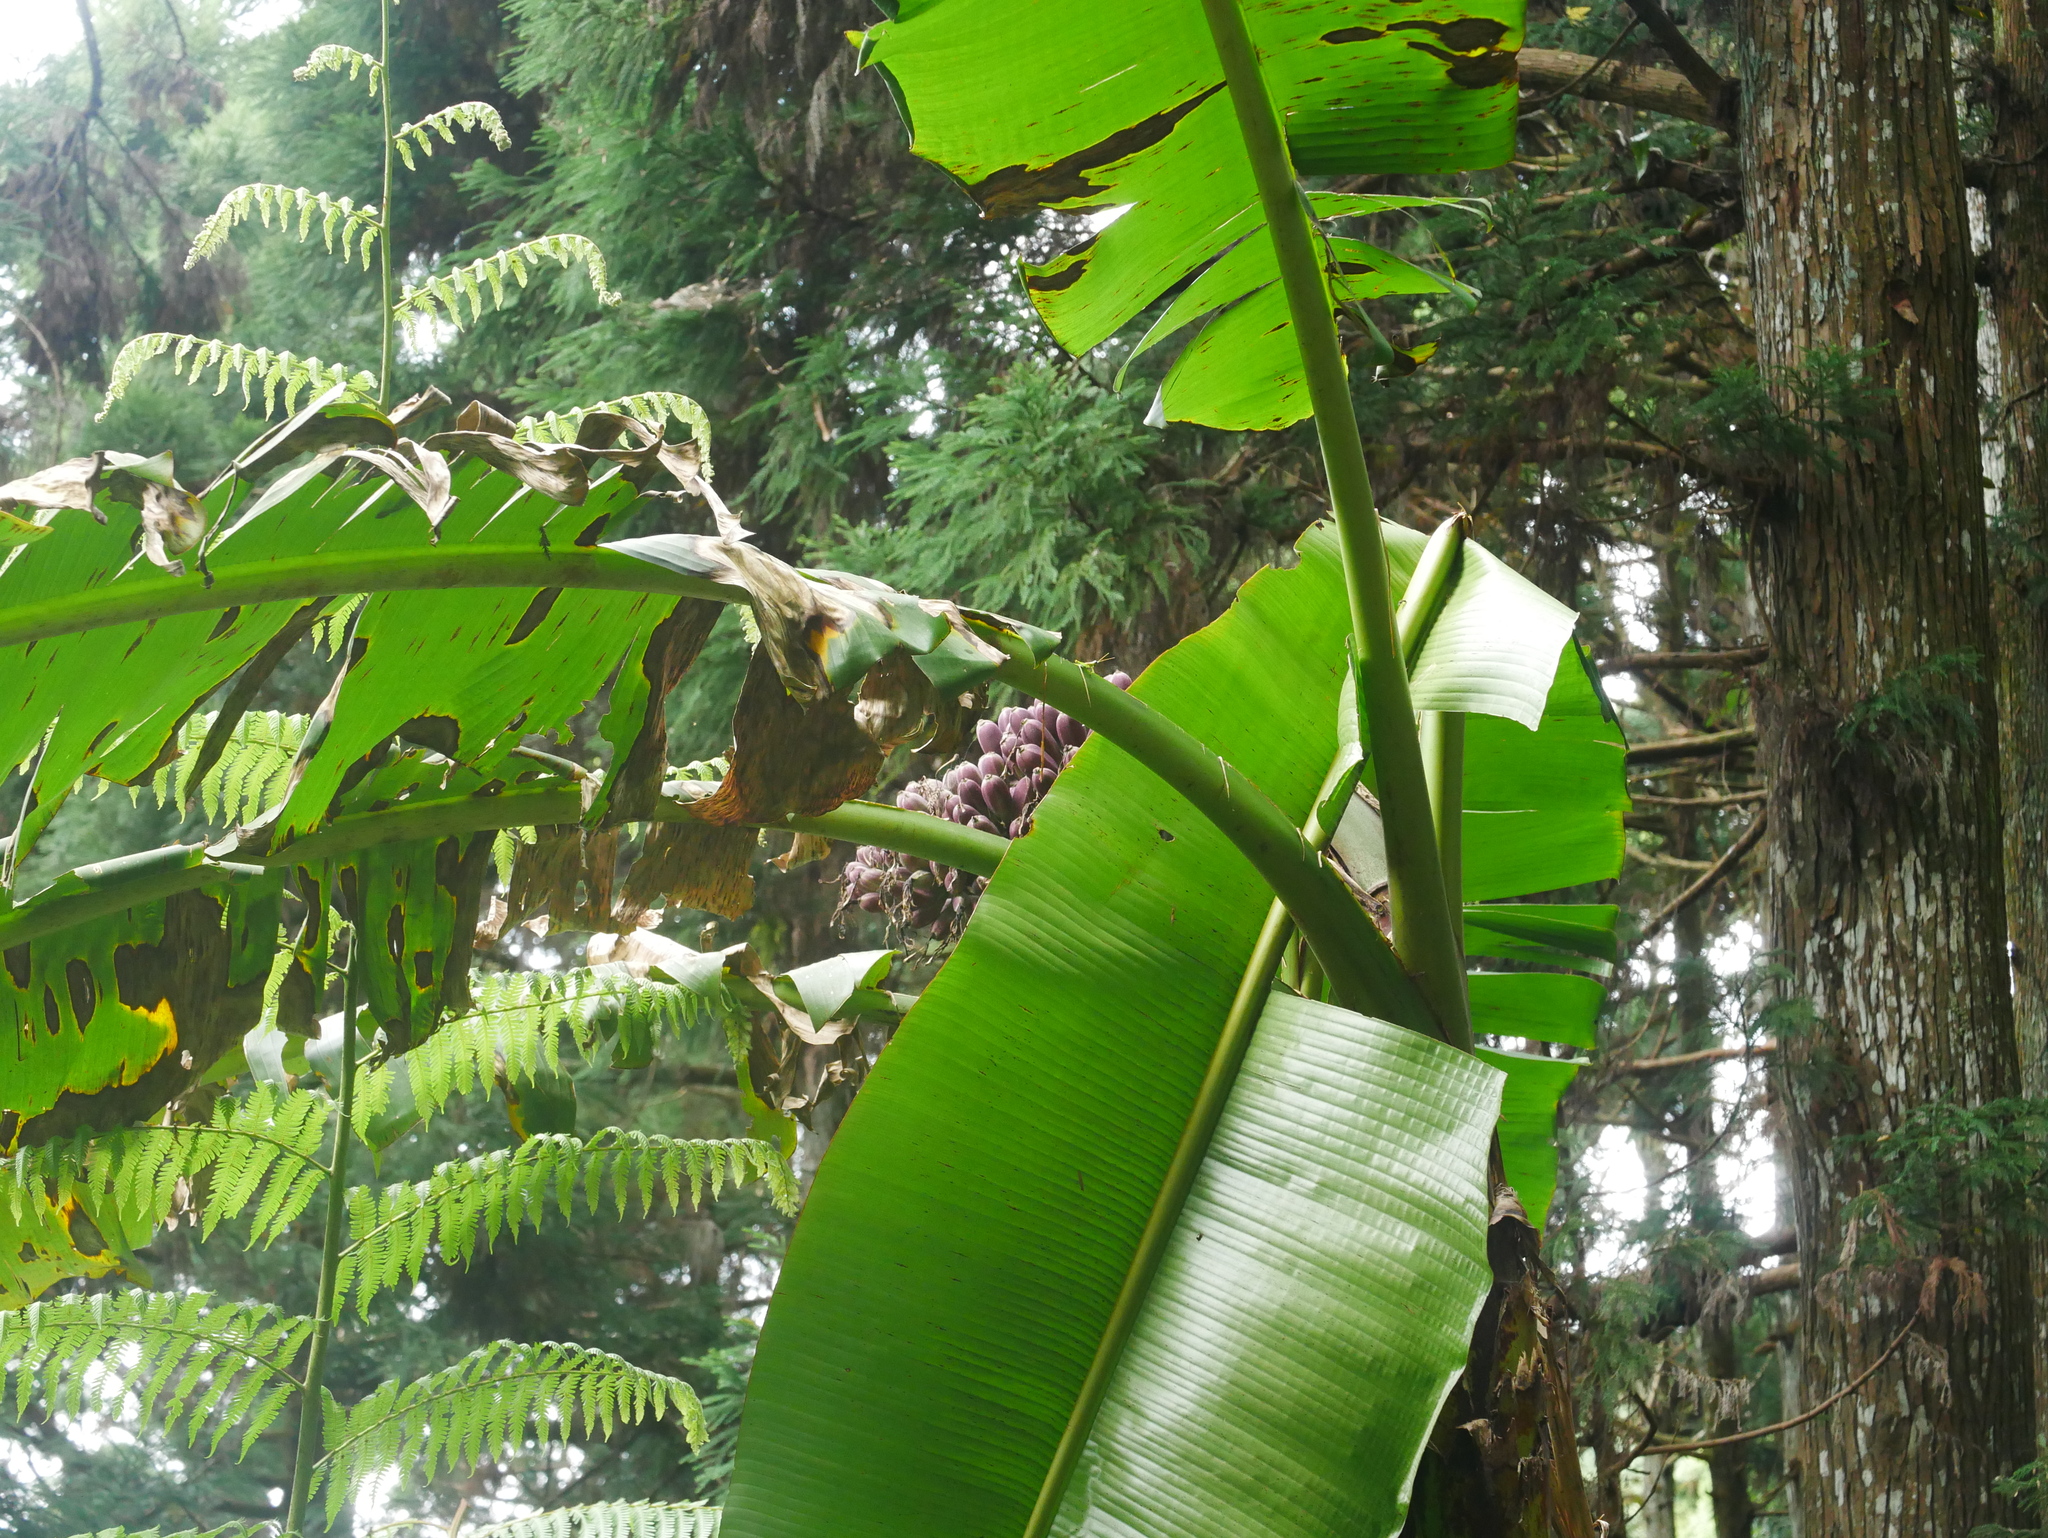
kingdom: Plantae
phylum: Tracheophyta
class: Liliopsida
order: Zingiberales
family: Musaceae
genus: Musa
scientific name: Musa itinerans
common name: Yunnan banana
